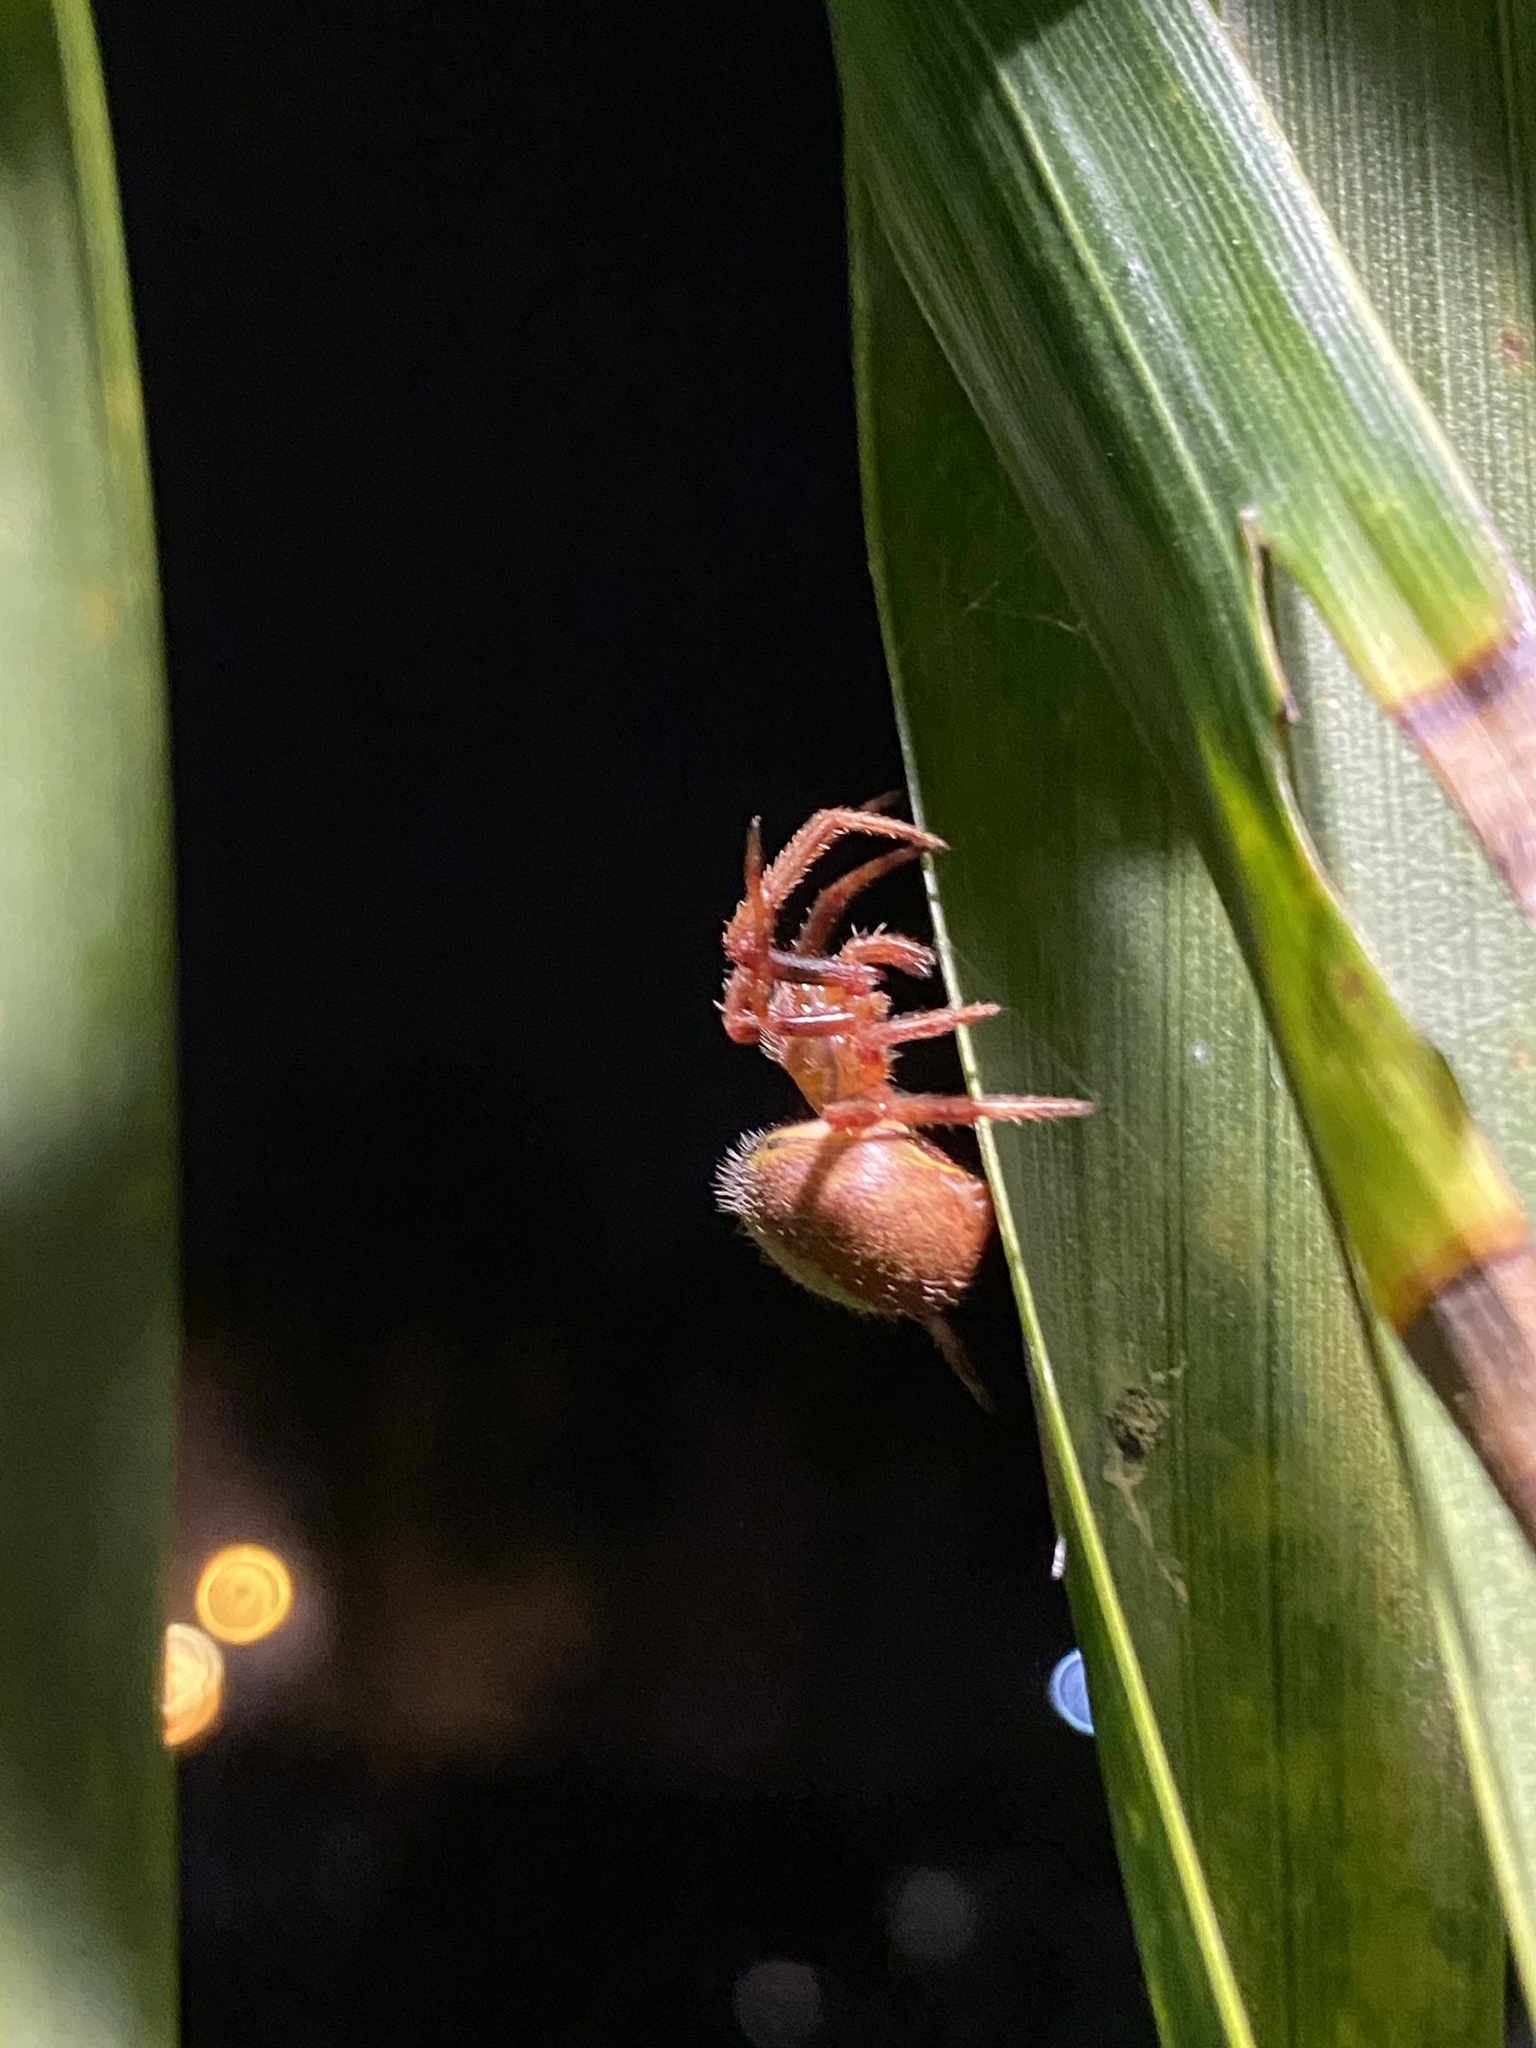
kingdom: Animalia
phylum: Arthropoda
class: Arachnida
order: Araneae
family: Araneidae
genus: Eriophora
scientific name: Eriophora ravilla
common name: Orb weavers
